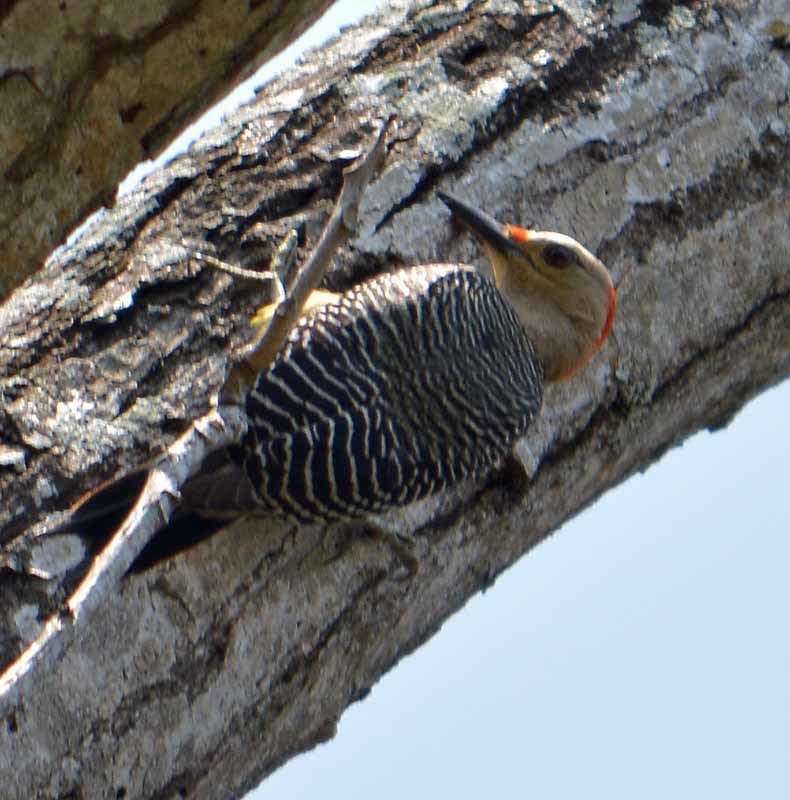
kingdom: Animalia
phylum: Chordata
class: Aves
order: Piciformes
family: Picidae
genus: Melanerpes
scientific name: Melanerpes aurifrons
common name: Golden-fronted woodpecker
